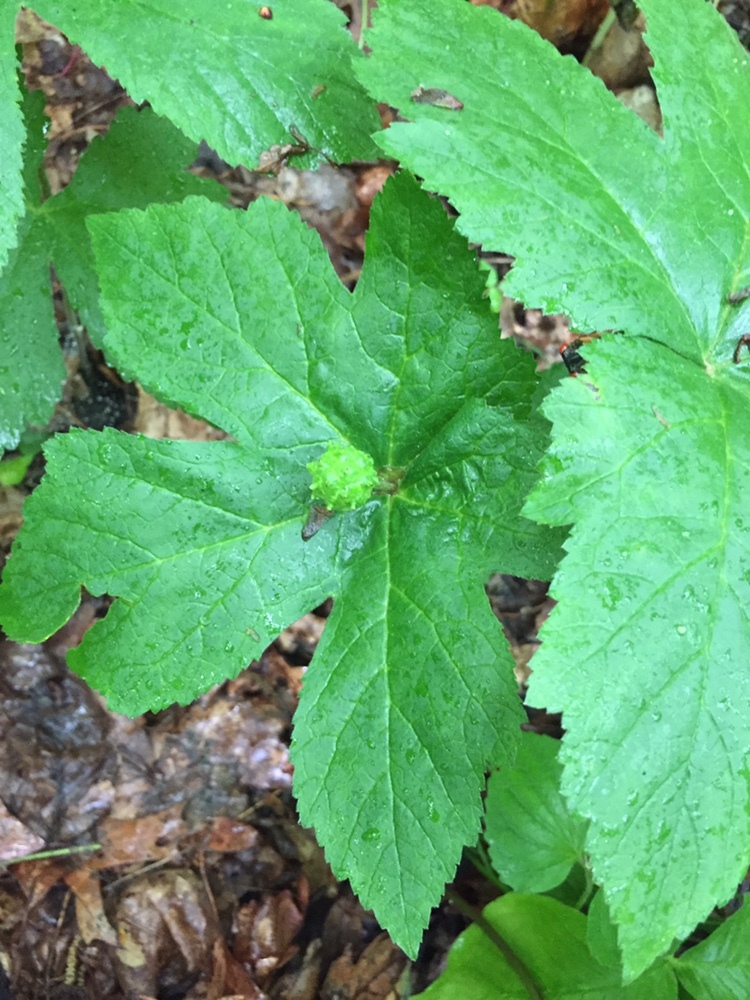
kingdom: Plantae
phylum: Tracheophyta
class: Magnoliopsida
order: Ranunculales
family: Ranunculaceae
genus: Hydrastis
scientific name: Hydrastis canadensis
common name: Goldenseal
